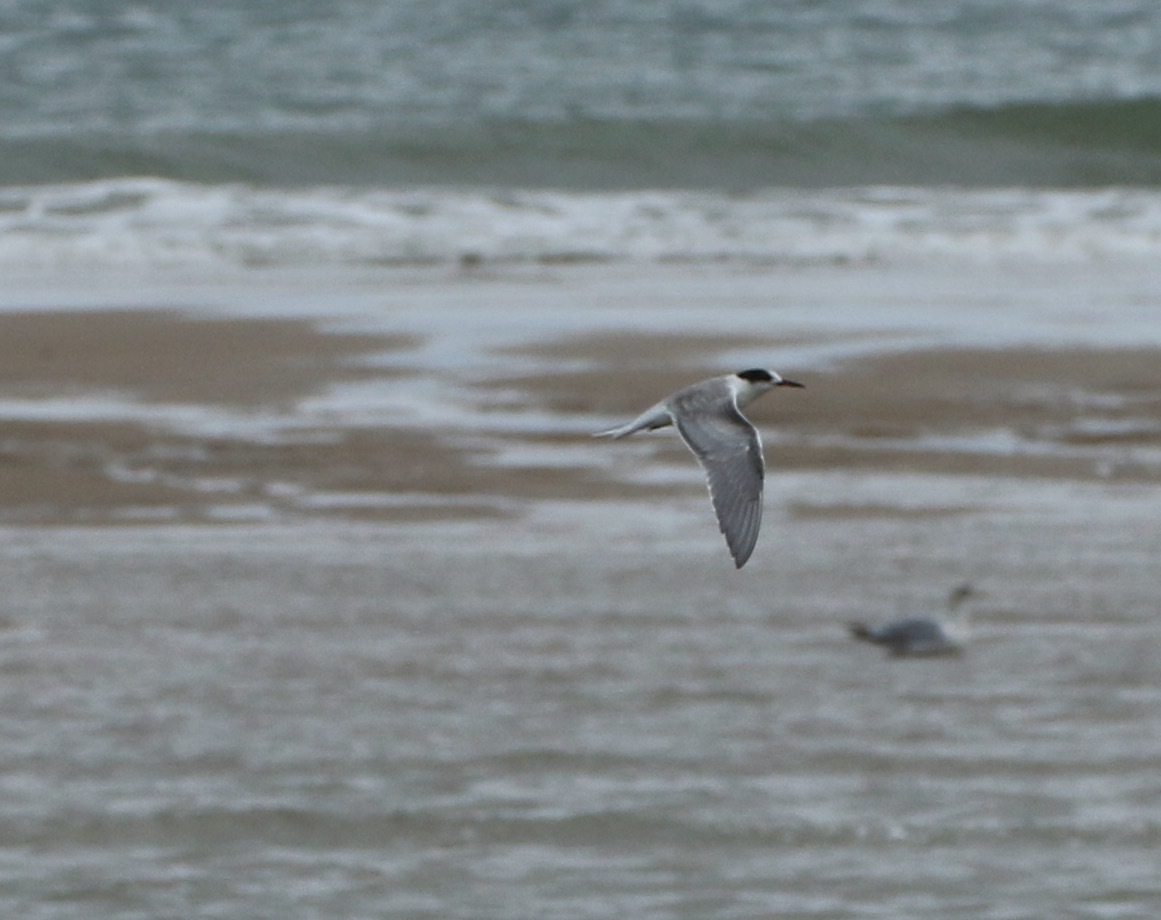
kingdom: Animalia
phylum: Chordata
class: Aves
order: Charadriiformes
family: Laridae
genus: Sterna
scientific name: Sterna hirundo
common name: Common tern
